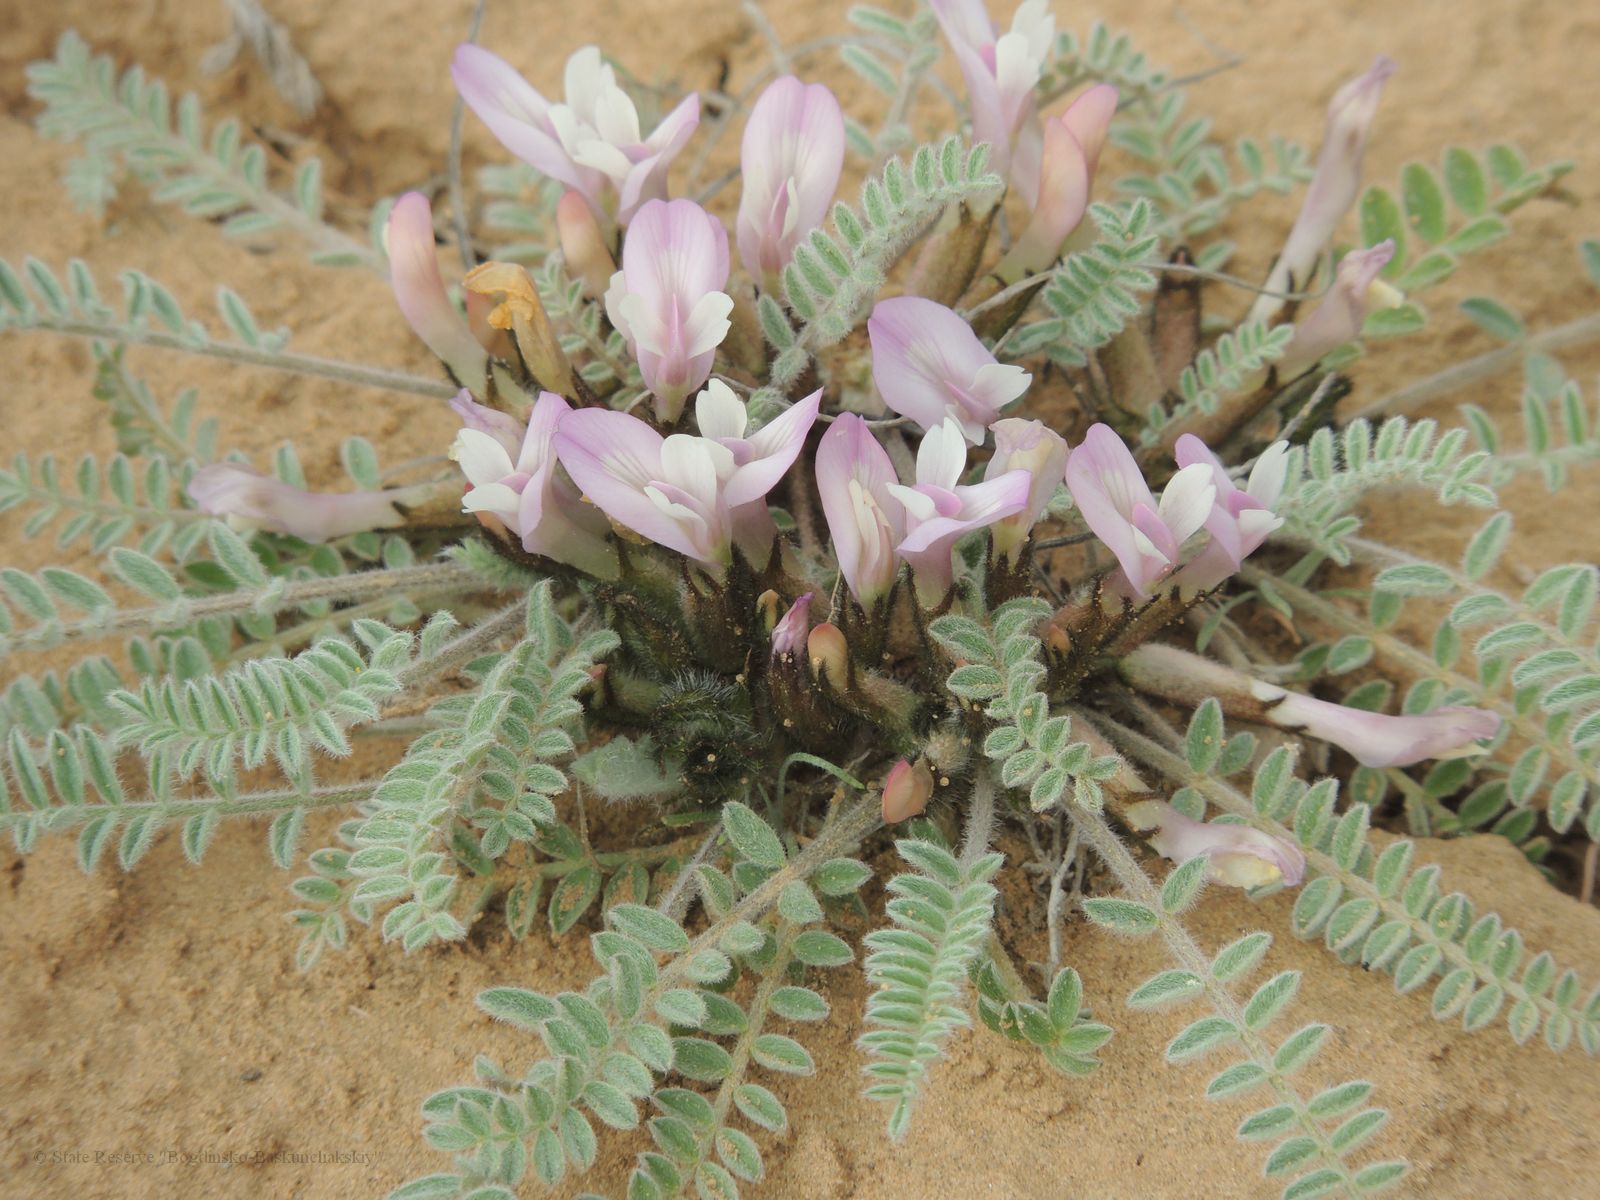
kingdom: Plantae
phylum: Tracheophyta
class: Magnoliopsida
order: Fabales
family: Fabaceae
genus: Astragalus
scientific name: Astragalus testiculatus
